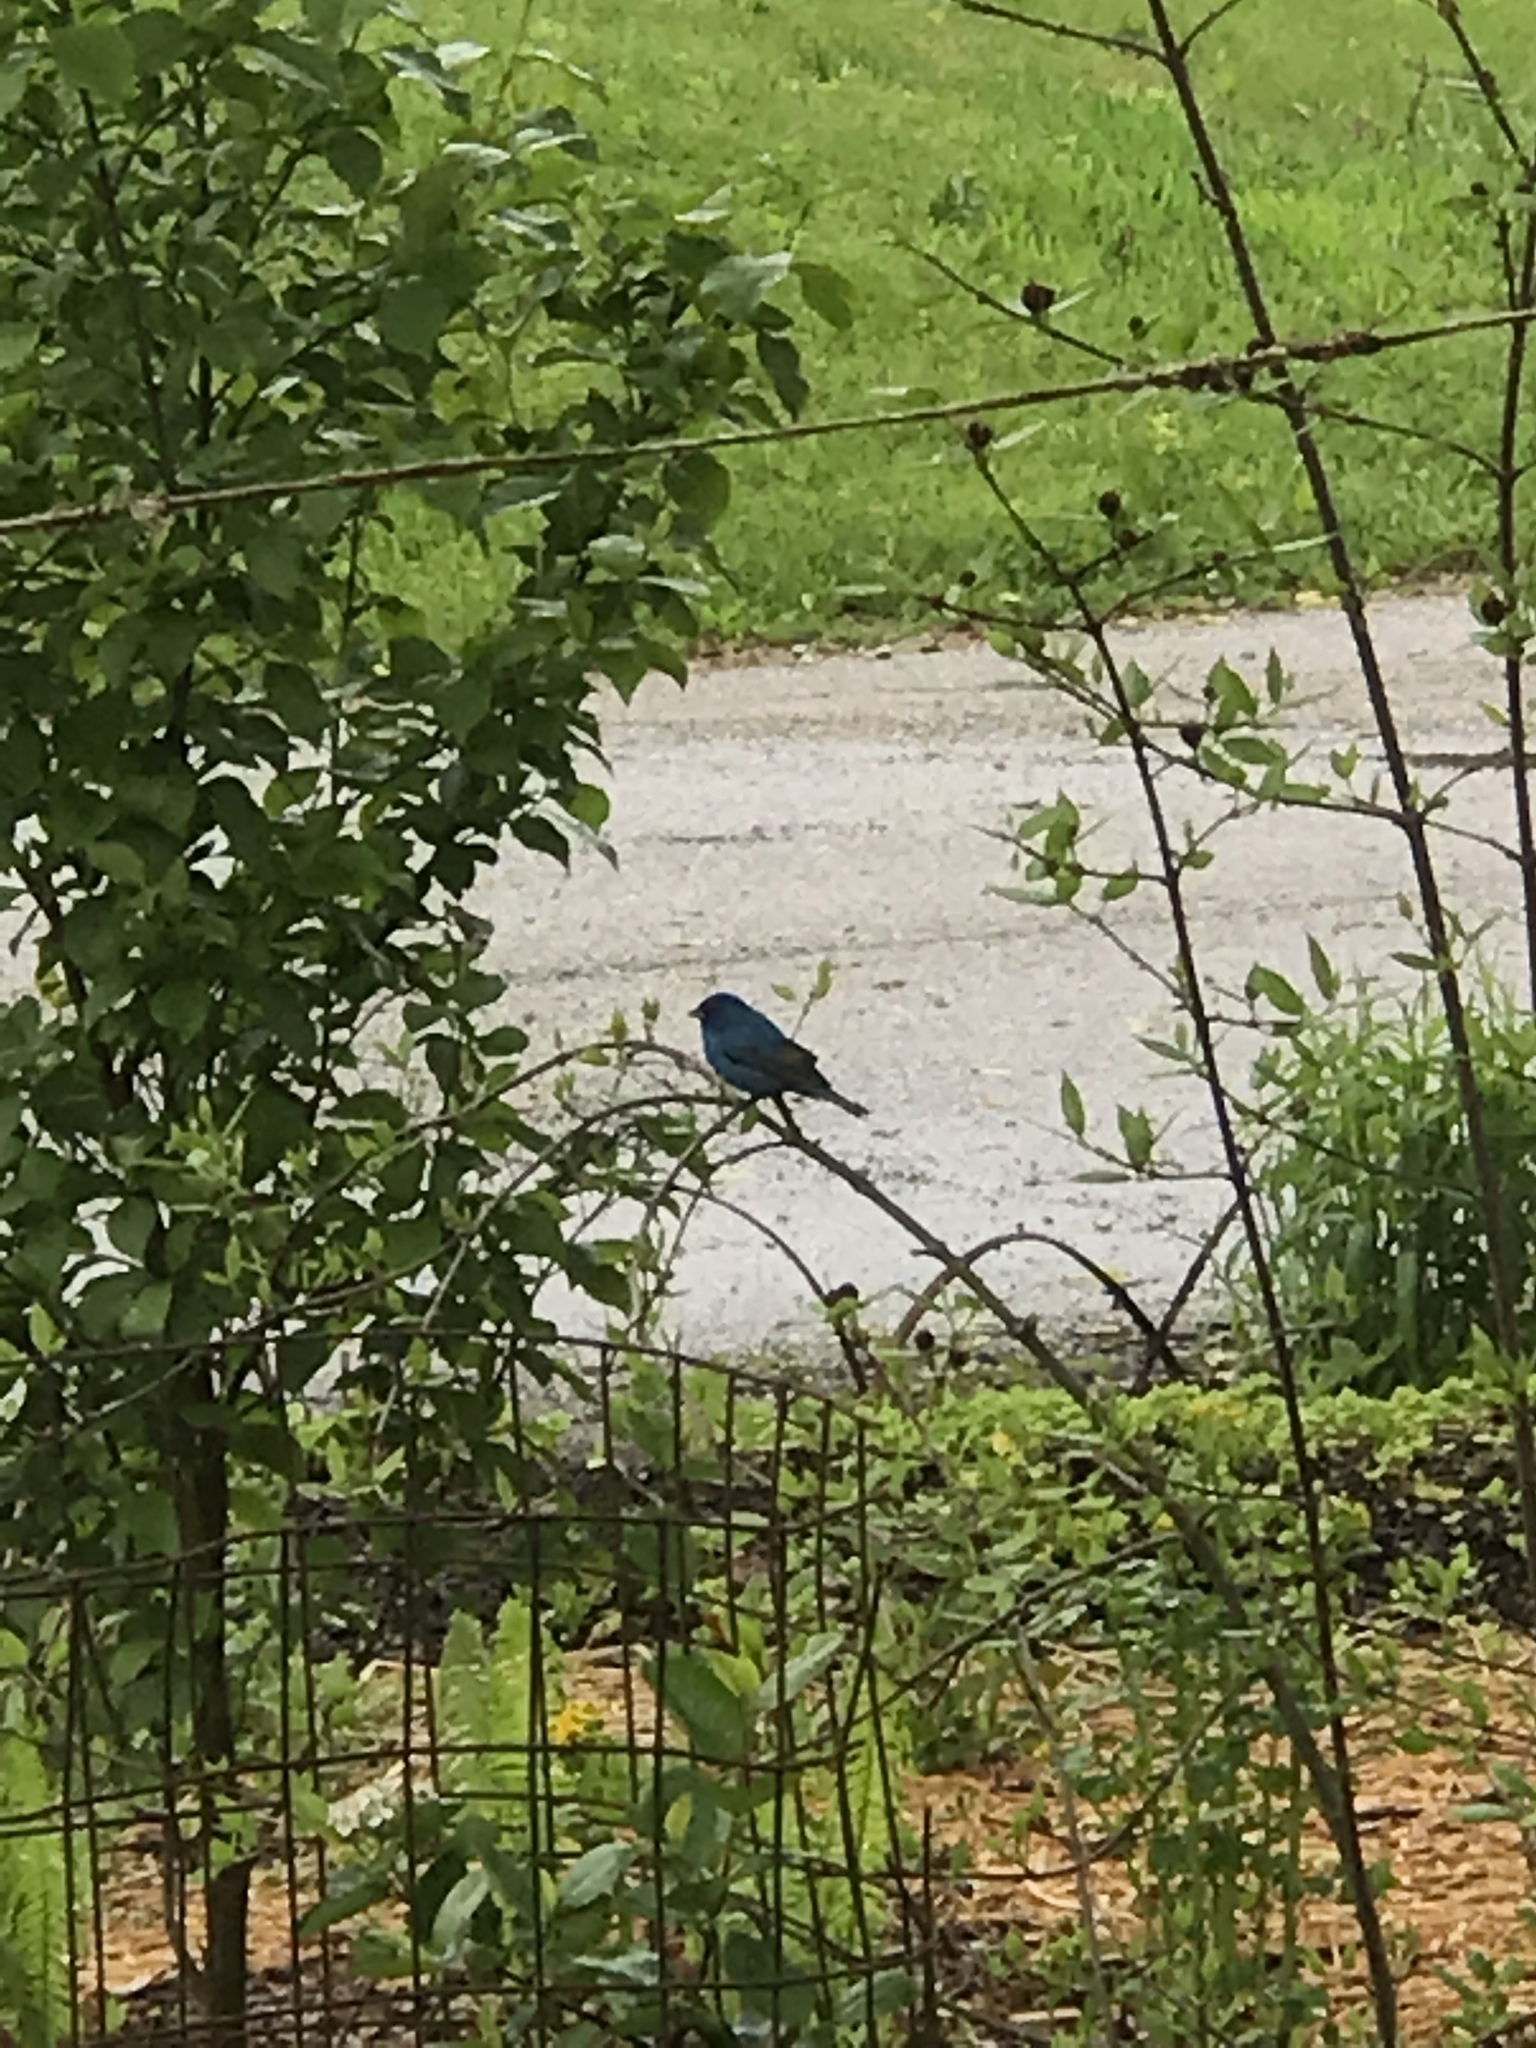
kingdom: Animalia
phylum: Chordata
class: Aves
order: Passeriformes
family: Cardinalidae
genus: Passerina
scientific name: Passerina cyanea
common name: Indigo bunting
